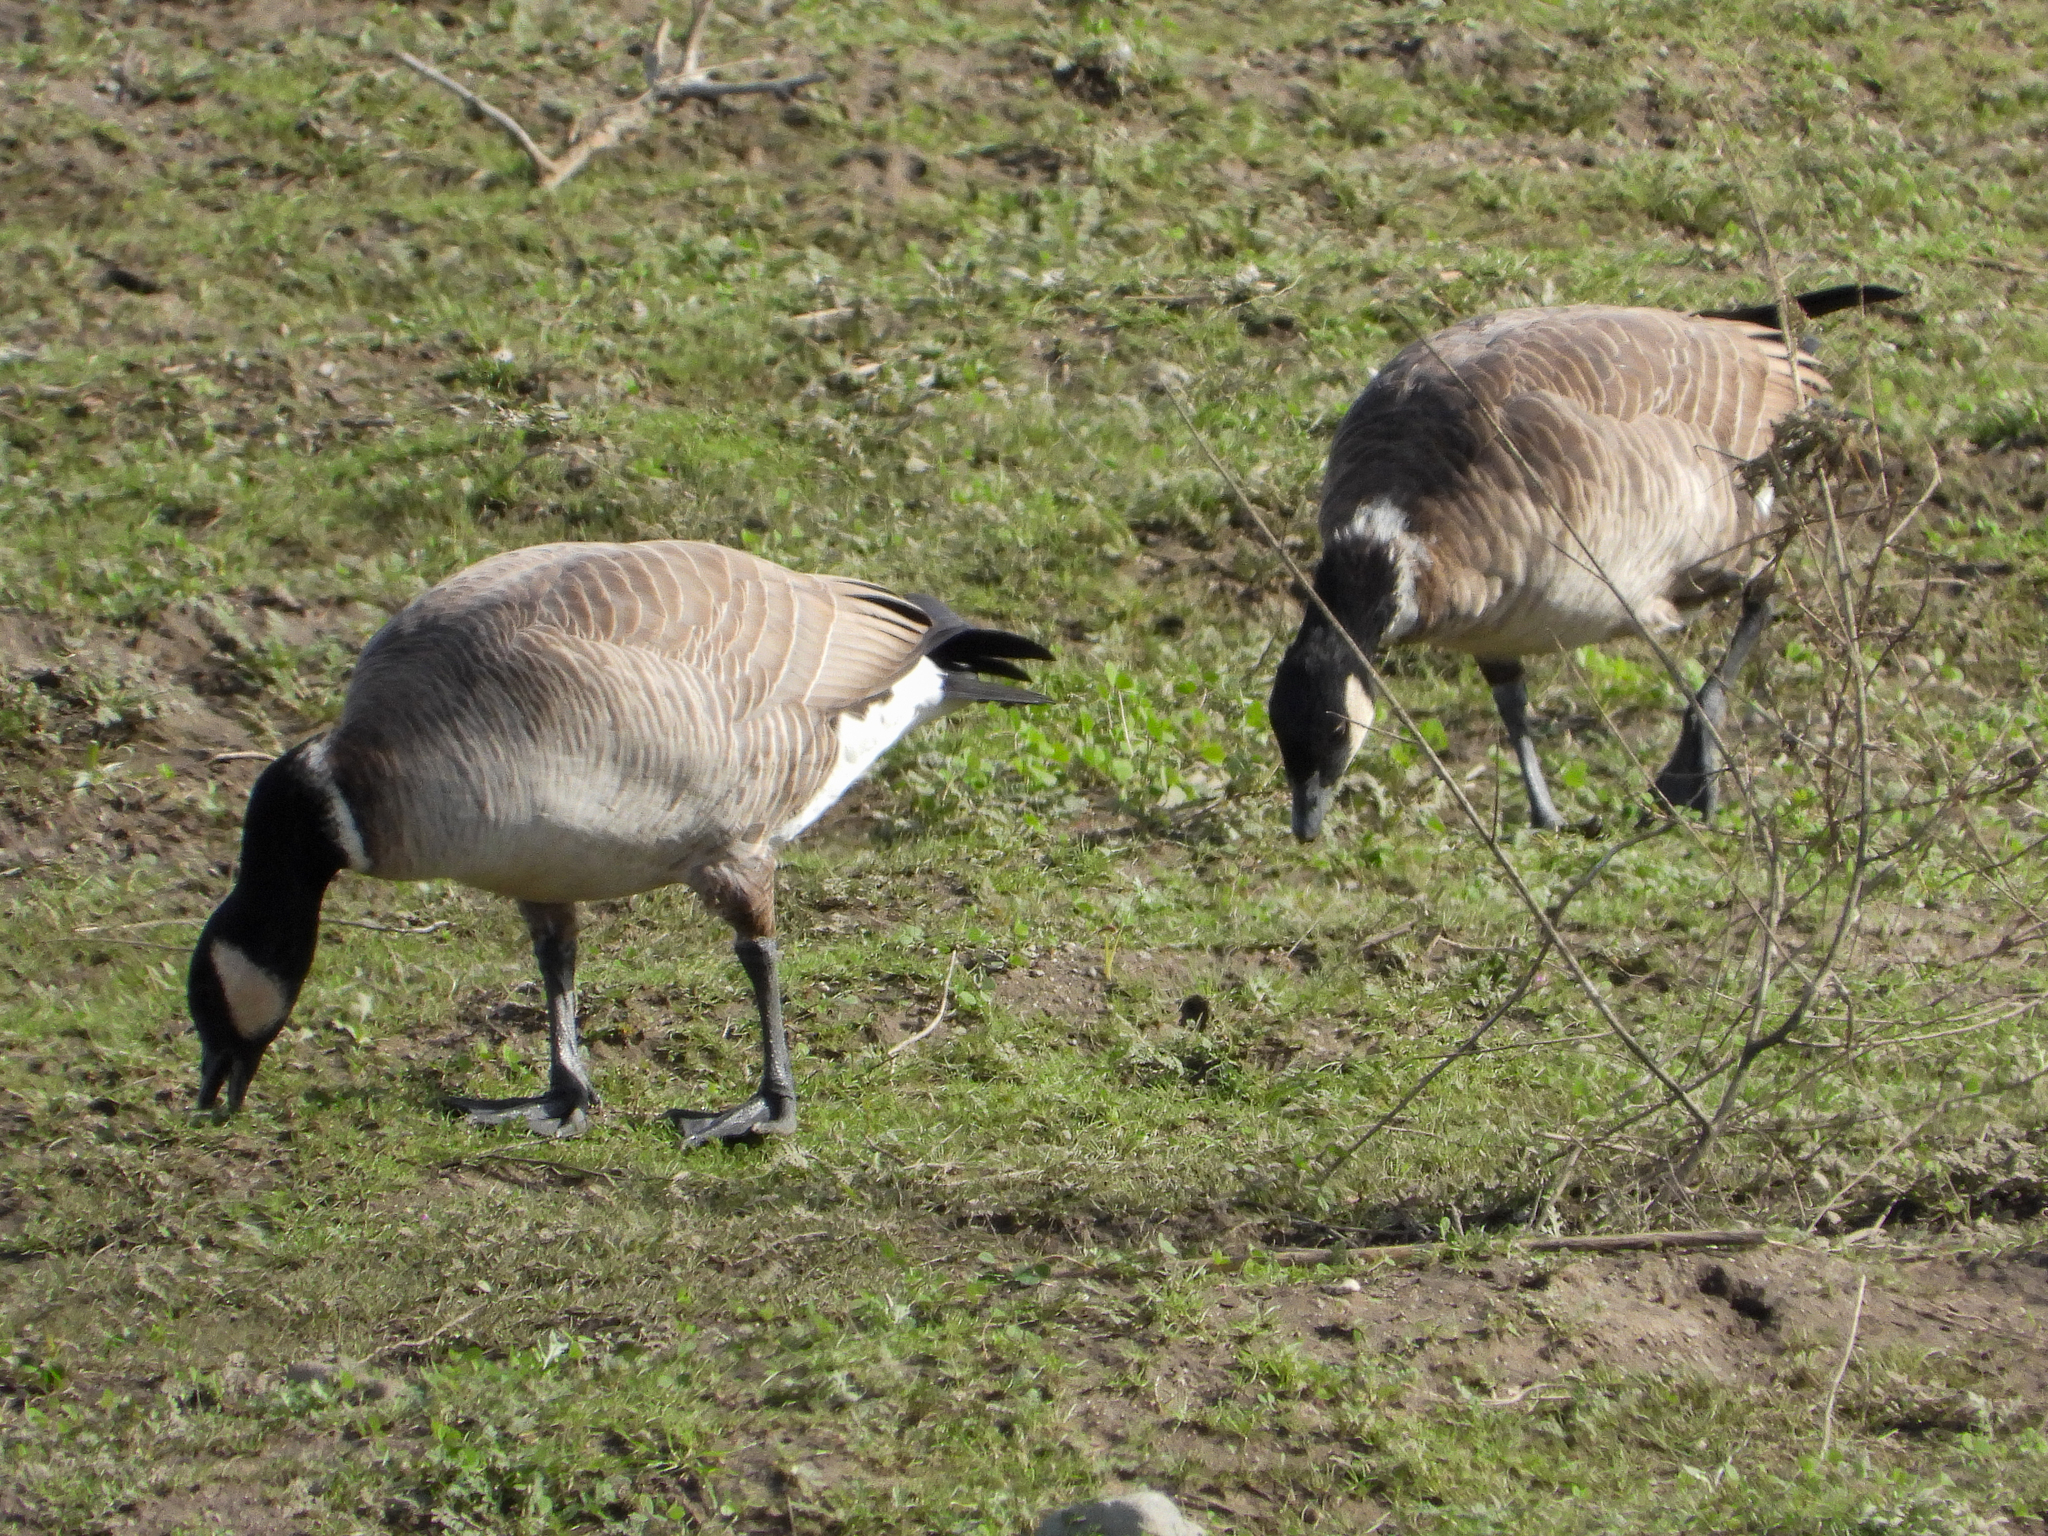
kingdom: Animalia
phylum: Chordata
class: Aves
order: Anseriformes
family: Anatidae
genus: Branta
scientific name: Branta hutchinsii
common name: Cackling goose
